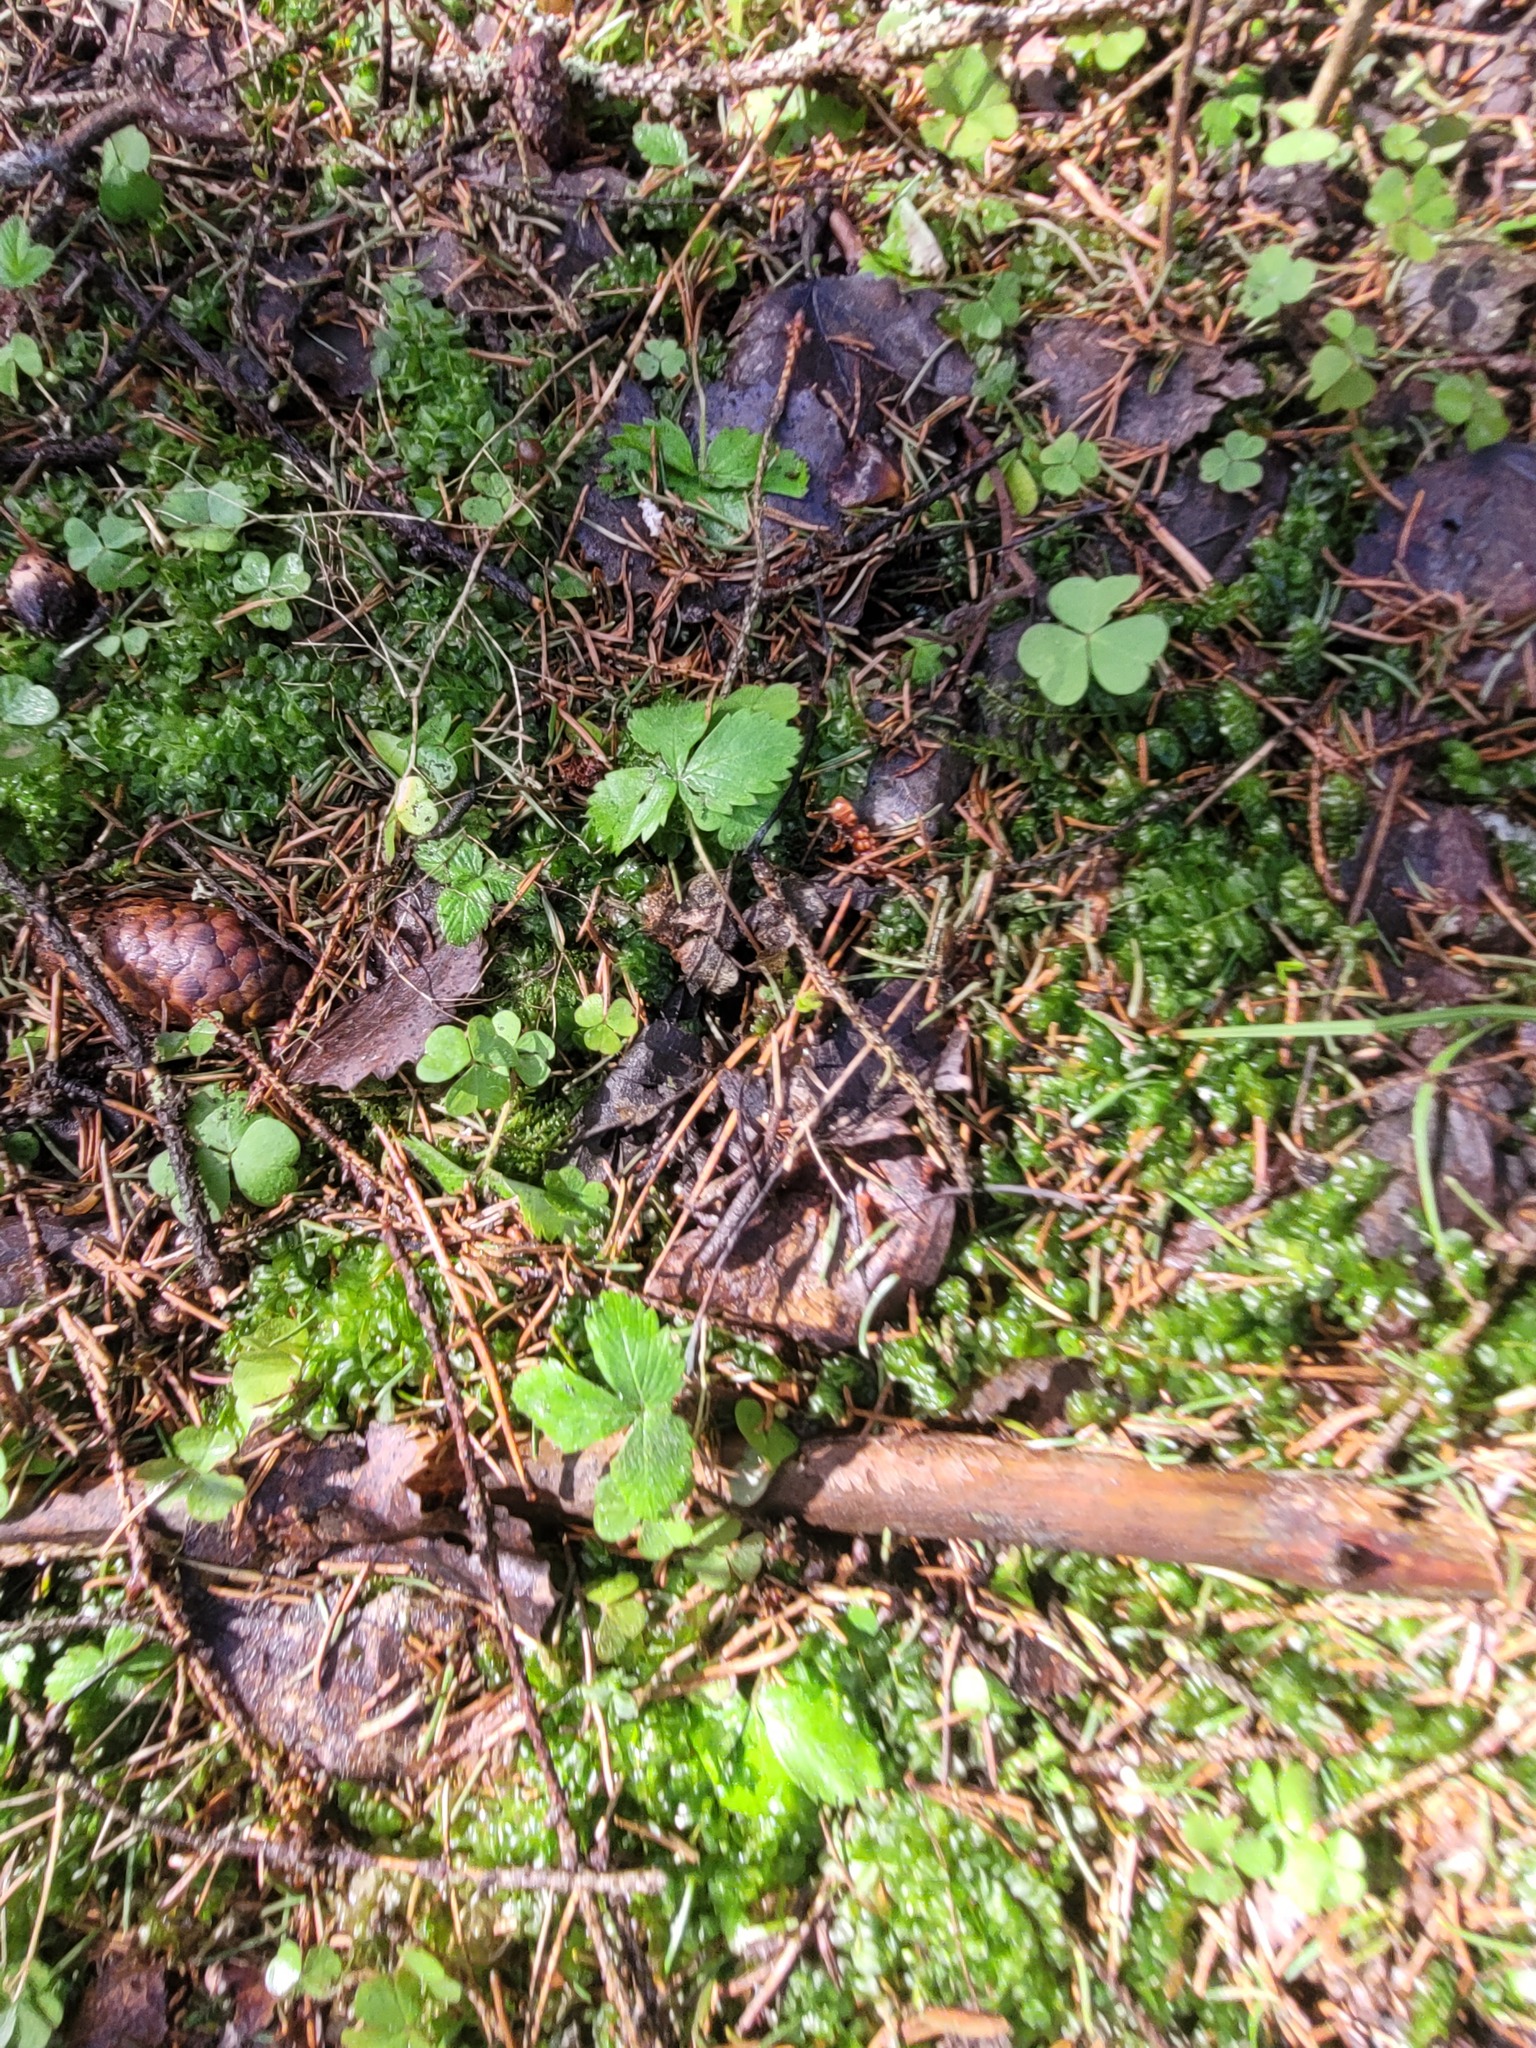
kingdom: Plantae
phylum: Tracheophyta
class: Magnoliopsida
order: Rosales
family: Rosaceae
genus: Fragaria
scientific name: Fragaria vesca
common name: Wild strawberry
